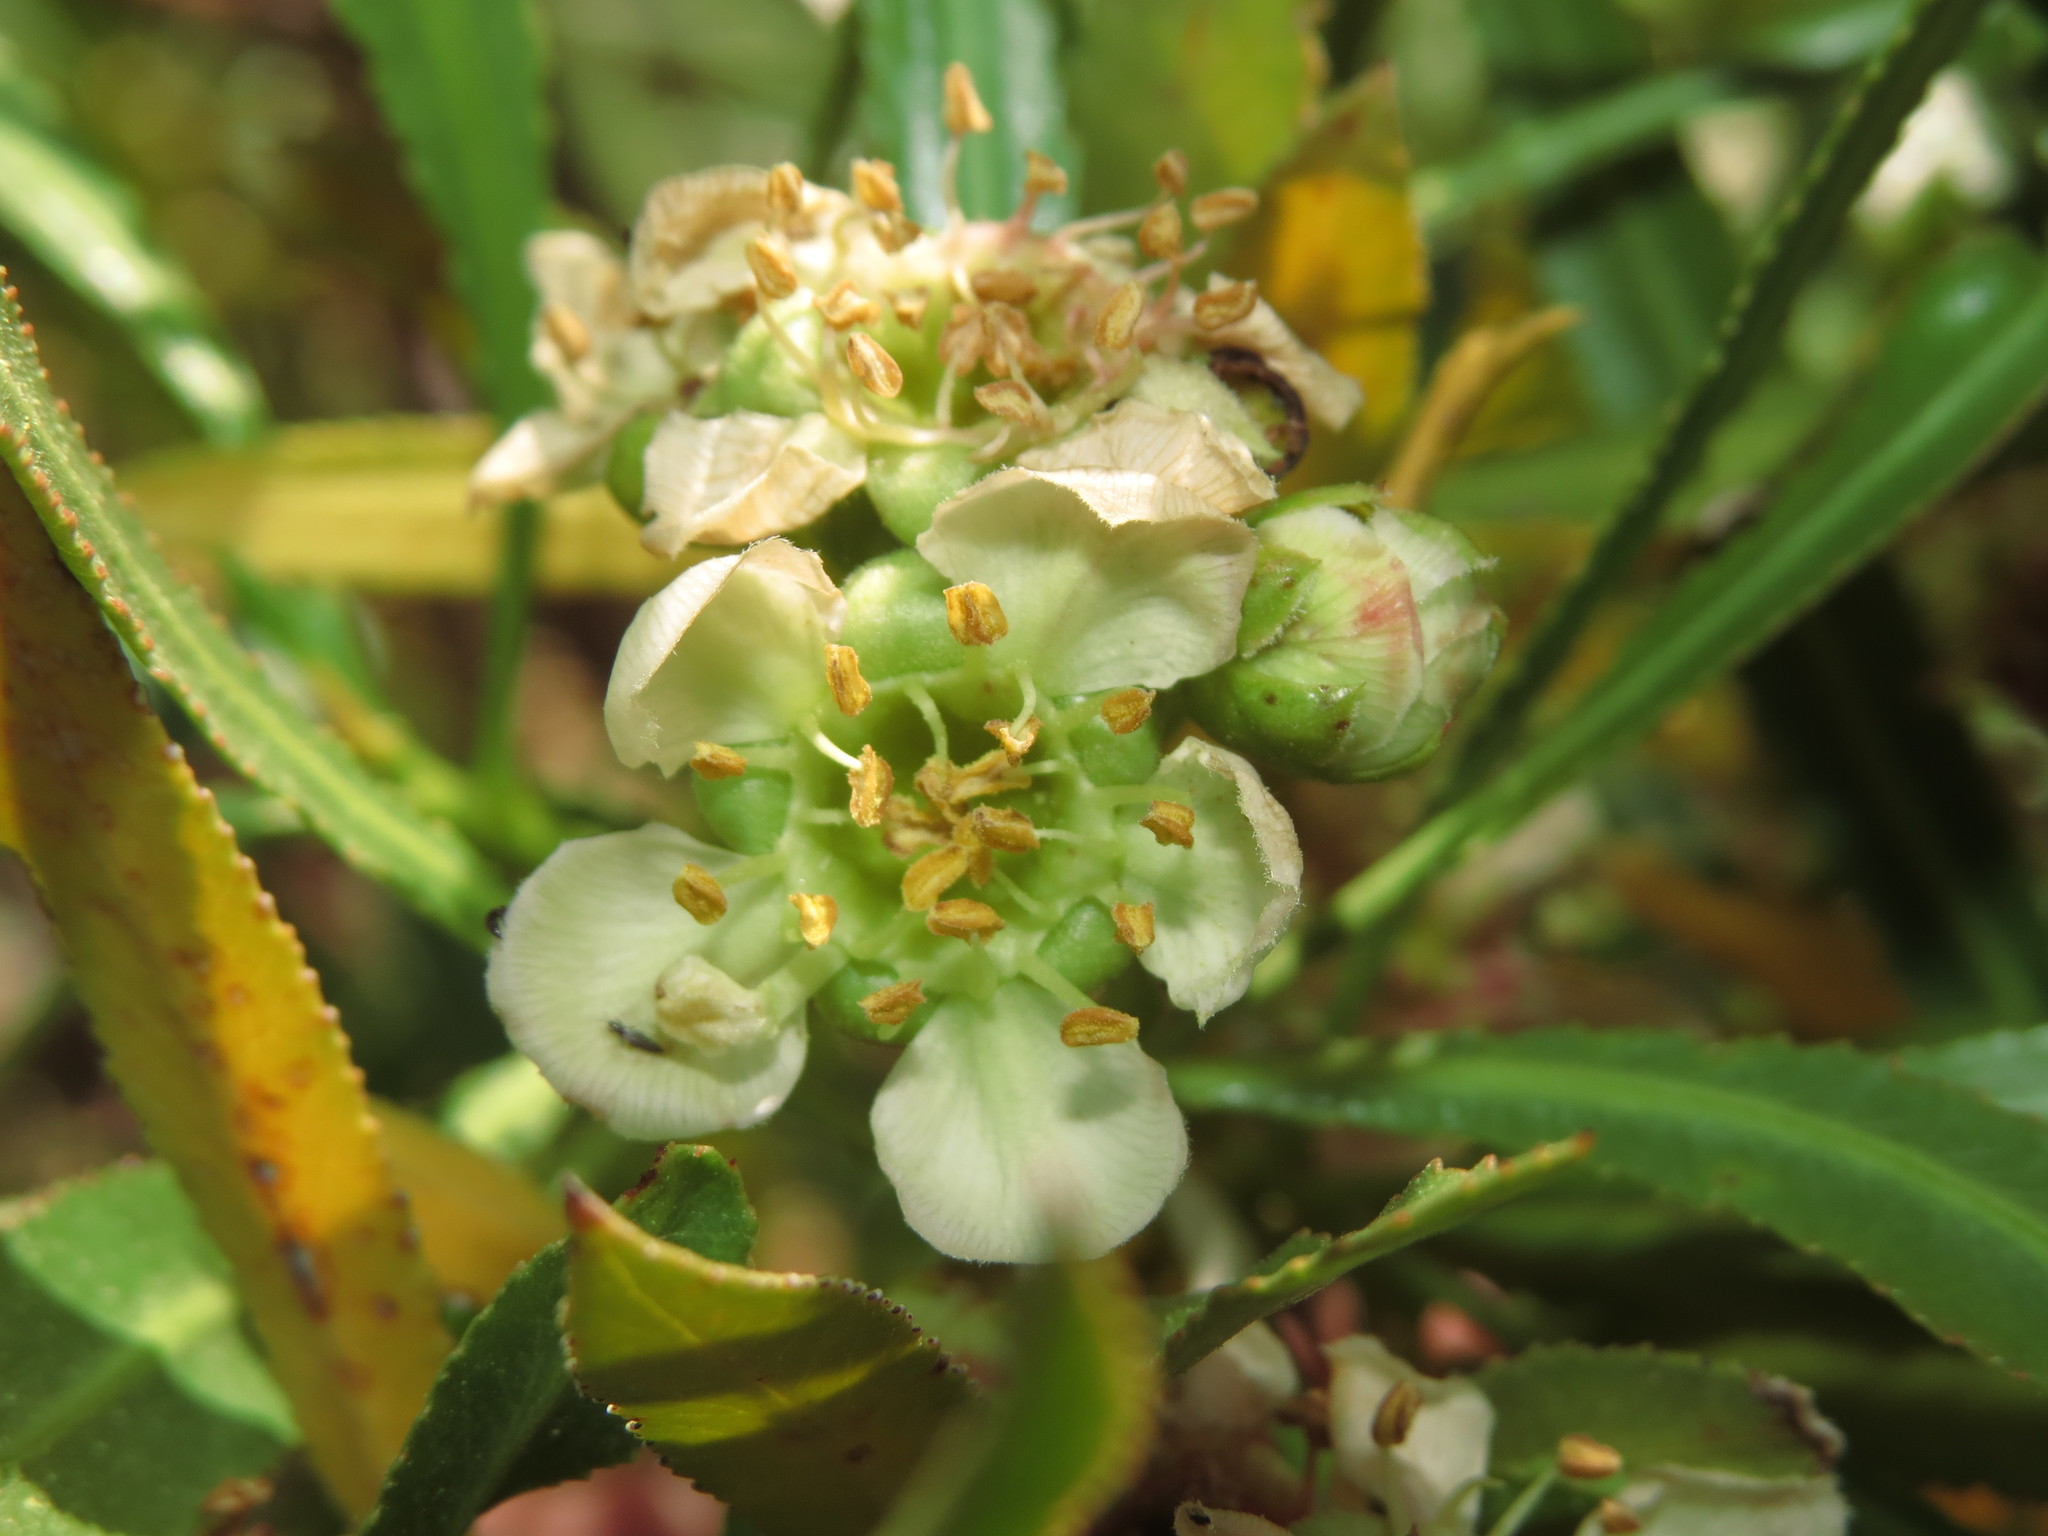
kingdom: Plantae
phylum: Tracheophyta
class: Magnoliopsida
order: Rosales
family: Rosaceae
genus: Kageneckia
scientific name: Kageneckia angustifolia
